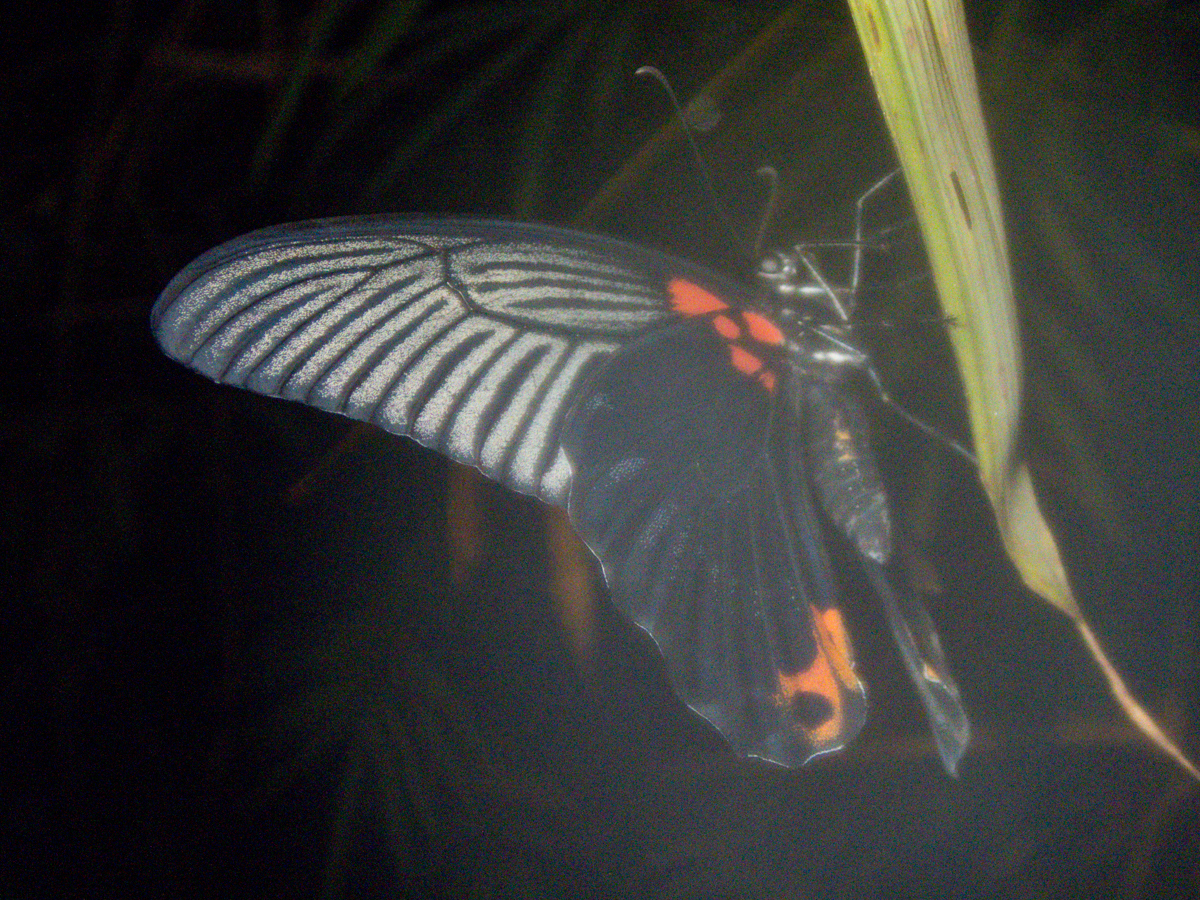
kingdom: Animalia
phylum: Arthropoda
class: Insecta
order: Lepidoptera
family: Papilionidae
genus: Papilio
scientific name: Papilio memnon
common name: Great mormon
